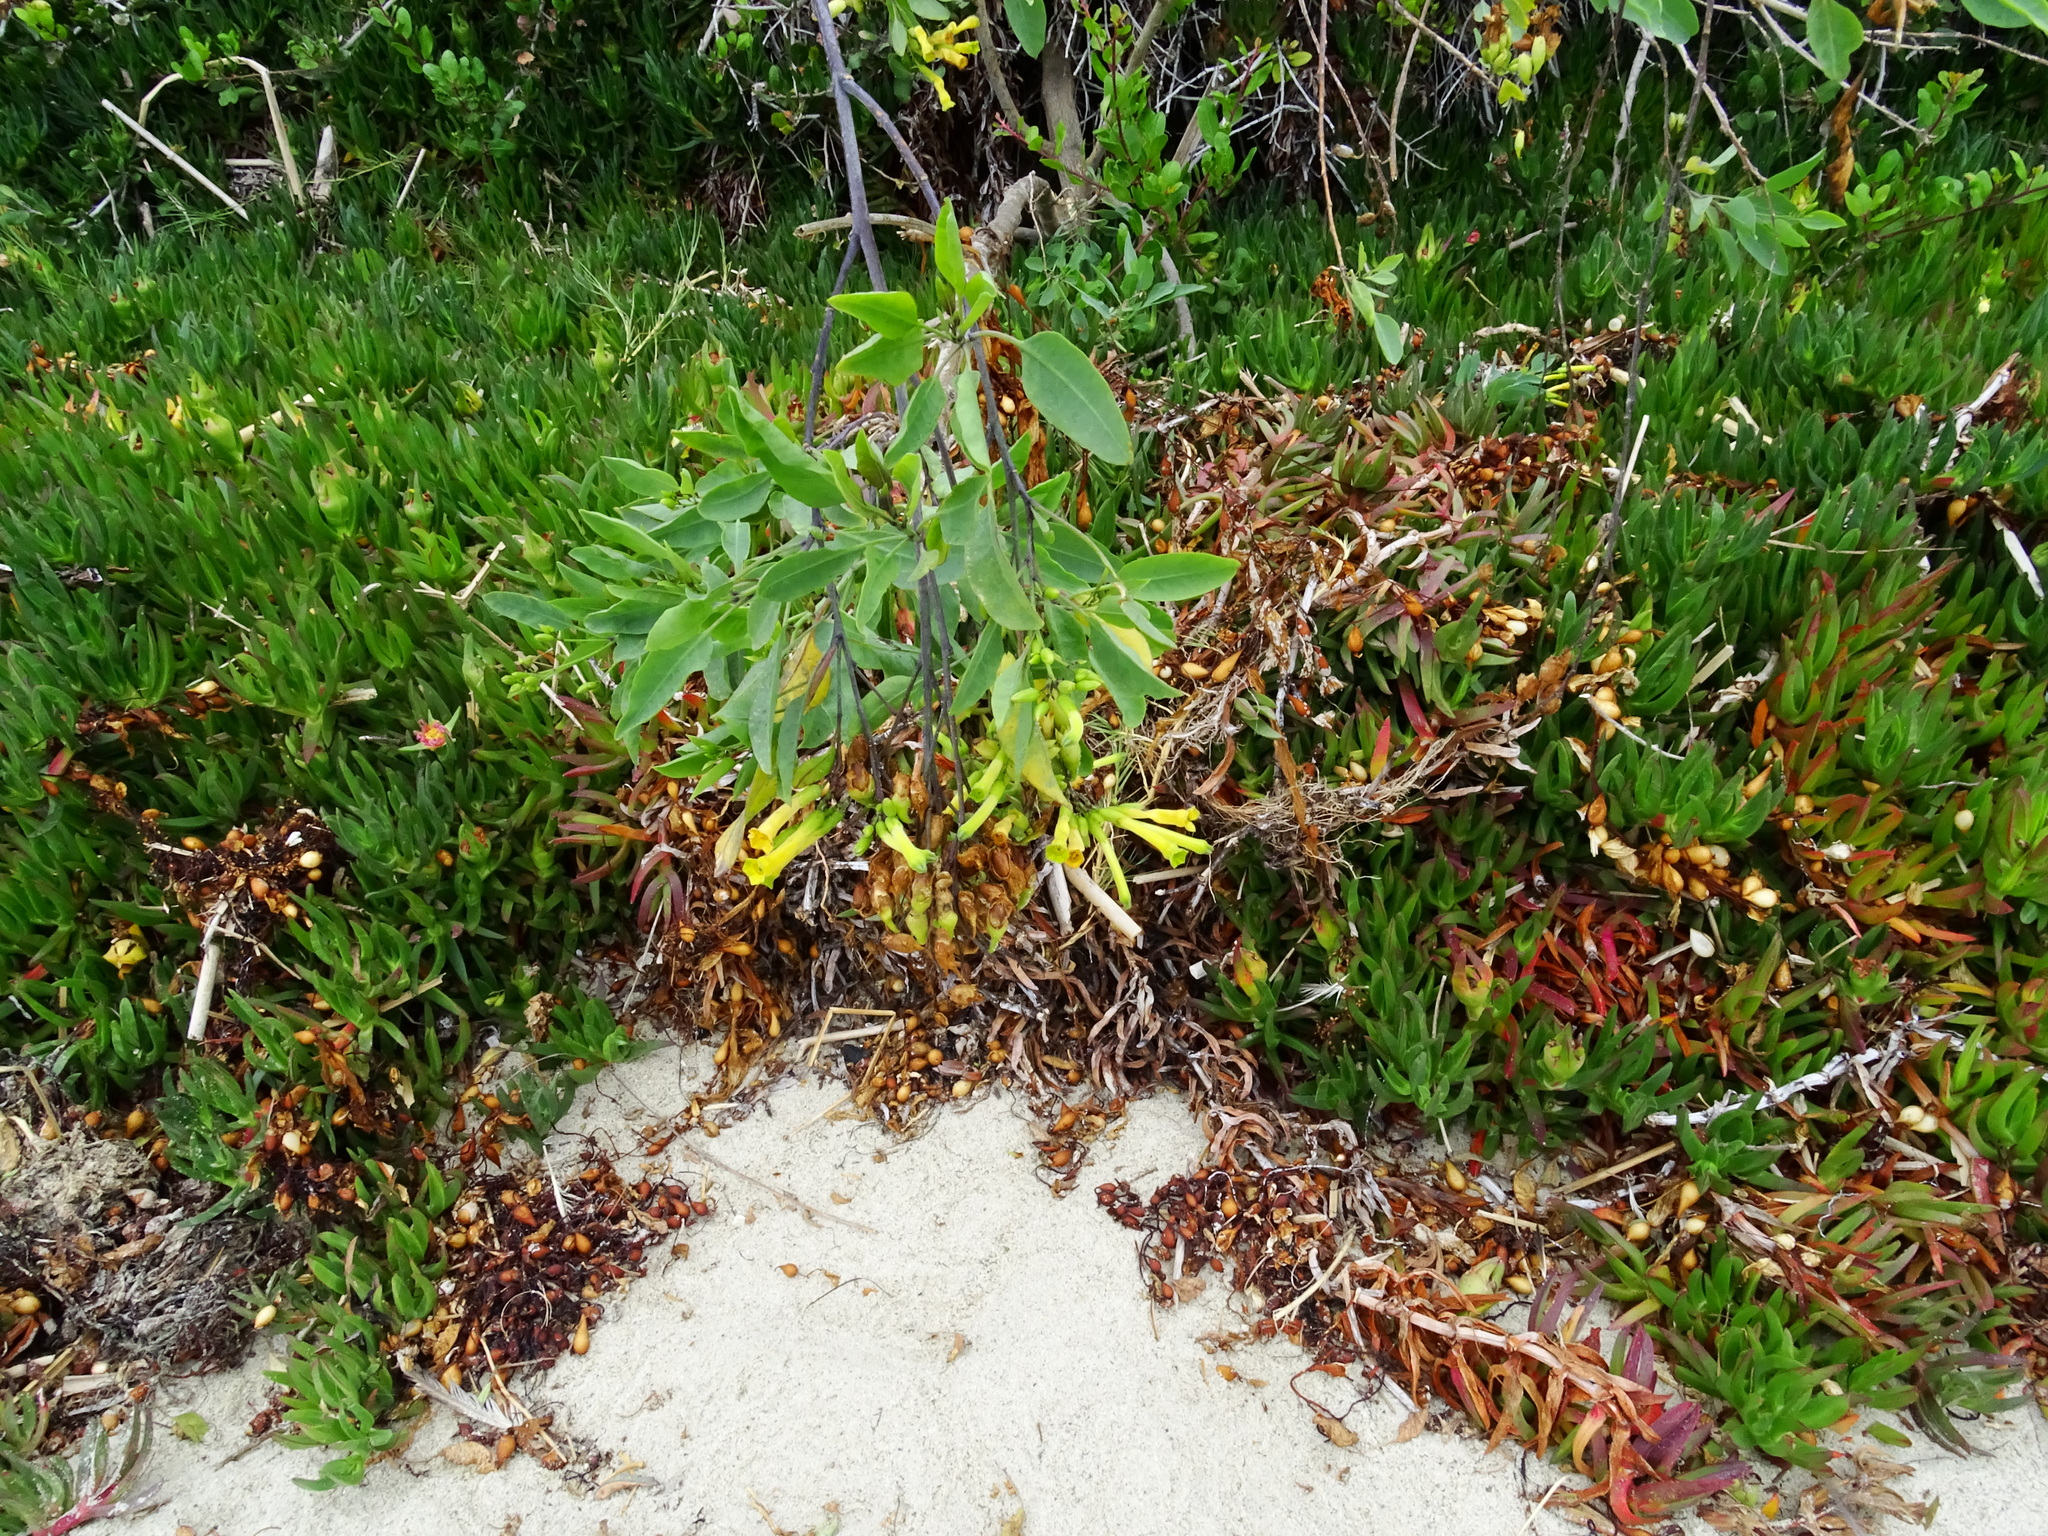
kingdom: Plantae
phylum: Tracheophyta
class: Magnoliopsida
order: Solanales
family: Solanaceae
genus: Nicotiana
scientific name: Nicotiana glauca
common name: Tree tobacco
